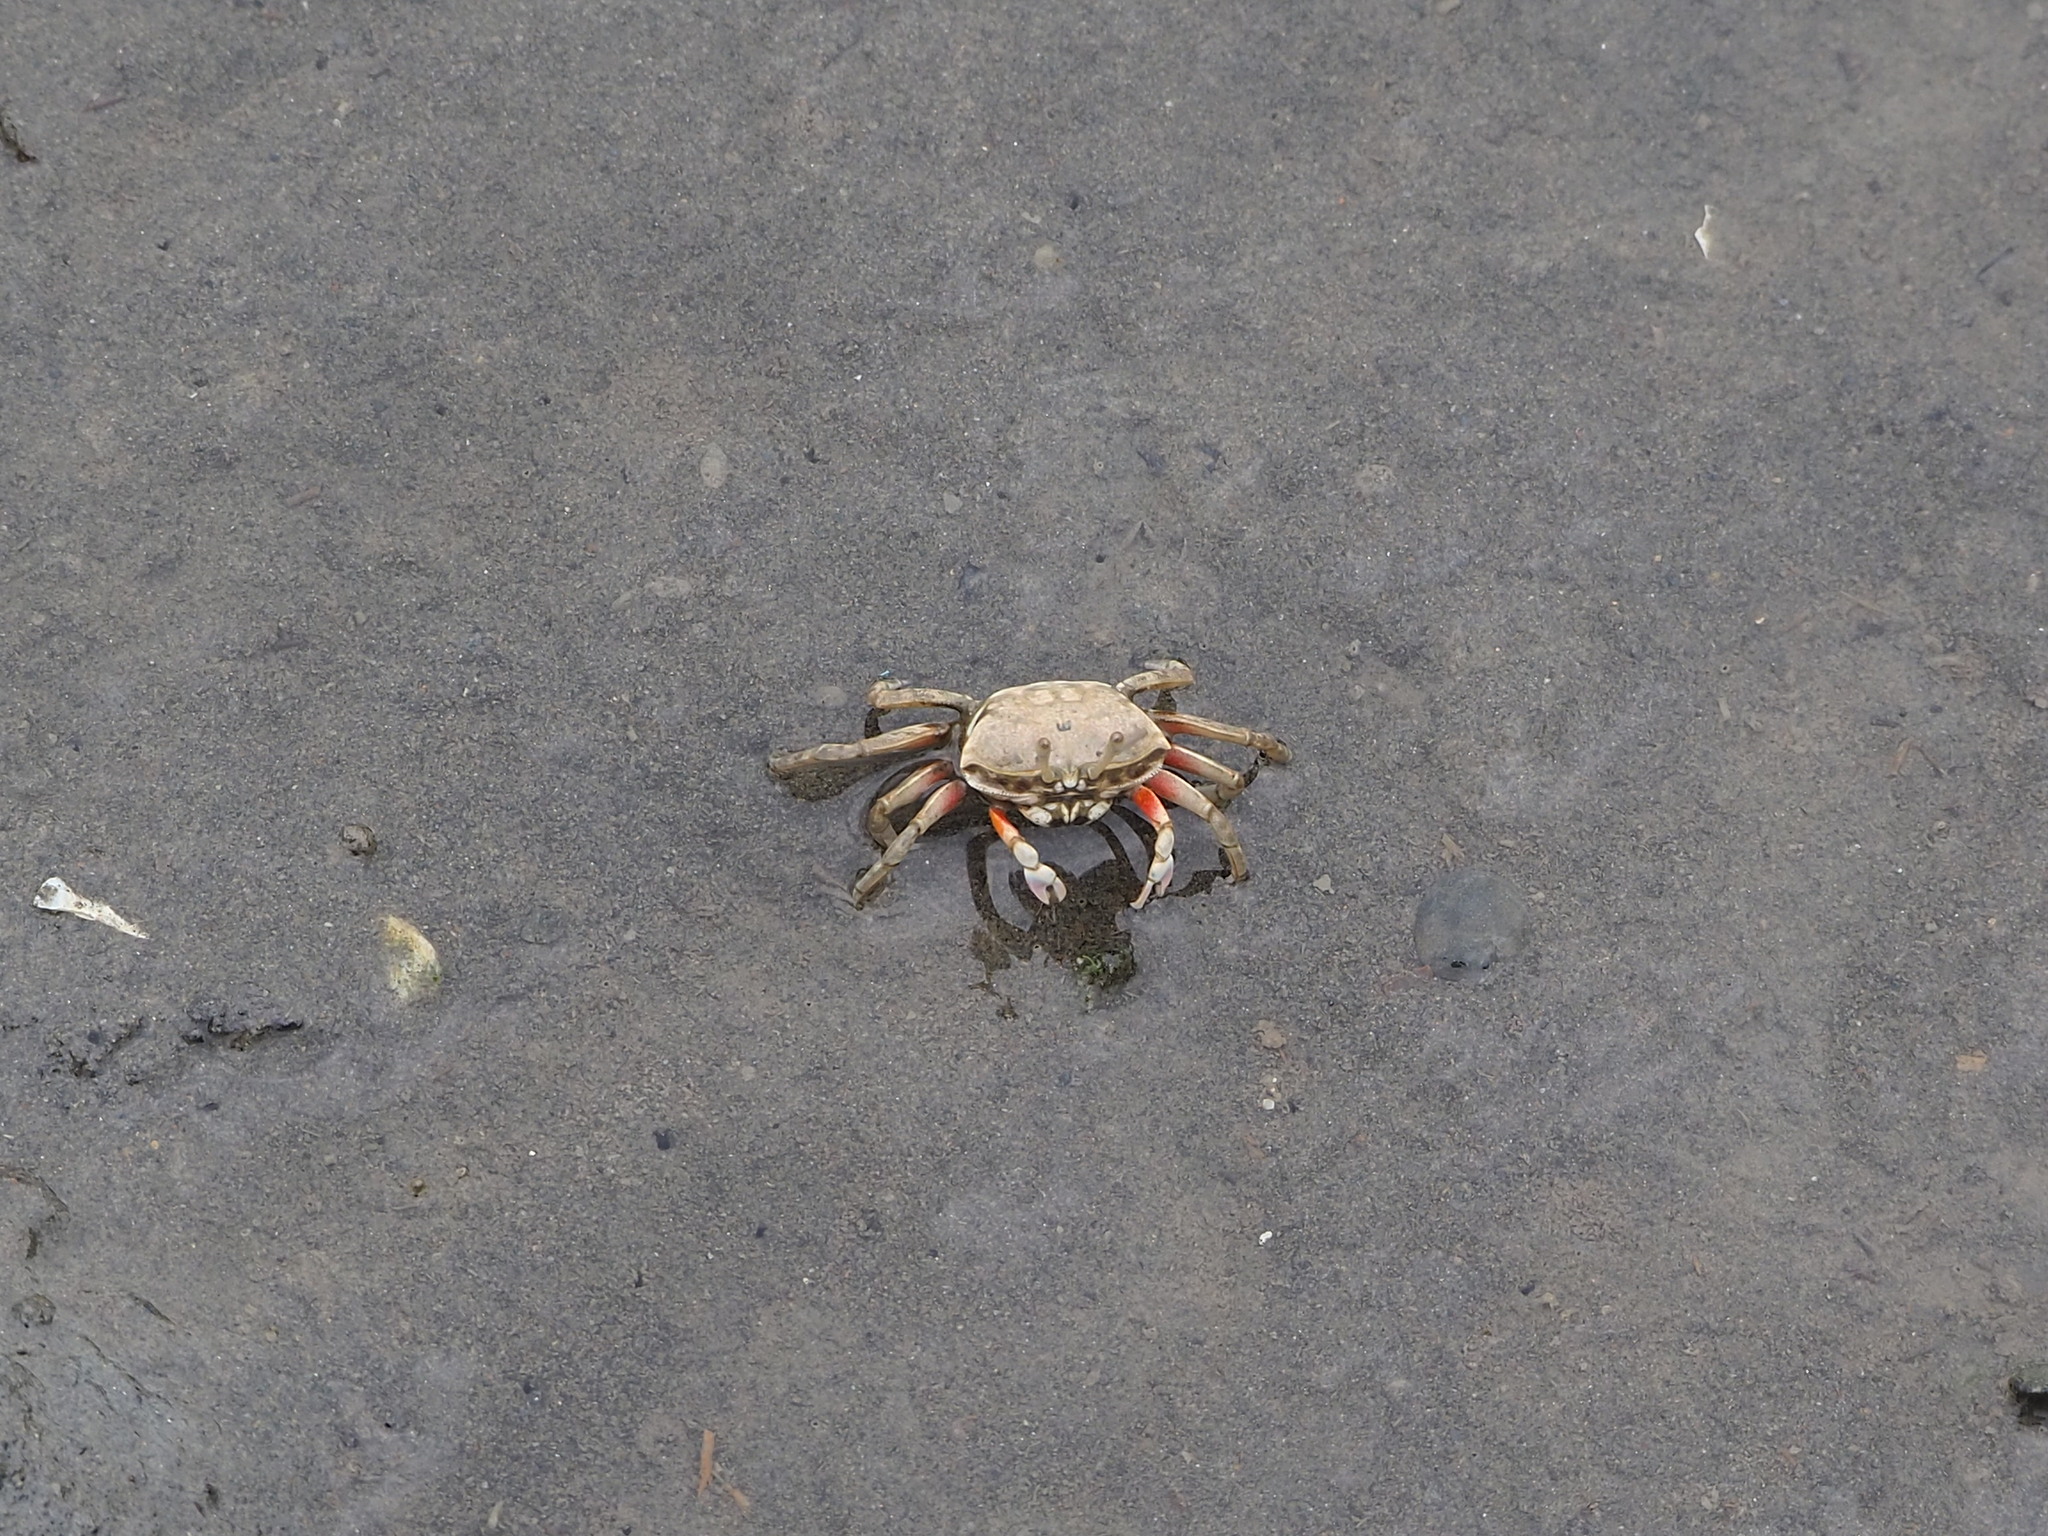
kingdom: Animalia
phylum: Arthropoda
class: Malacostraca
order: Decapoda
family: Ocypodidae
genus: Gelasimus
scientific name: Gelasimus borealis
